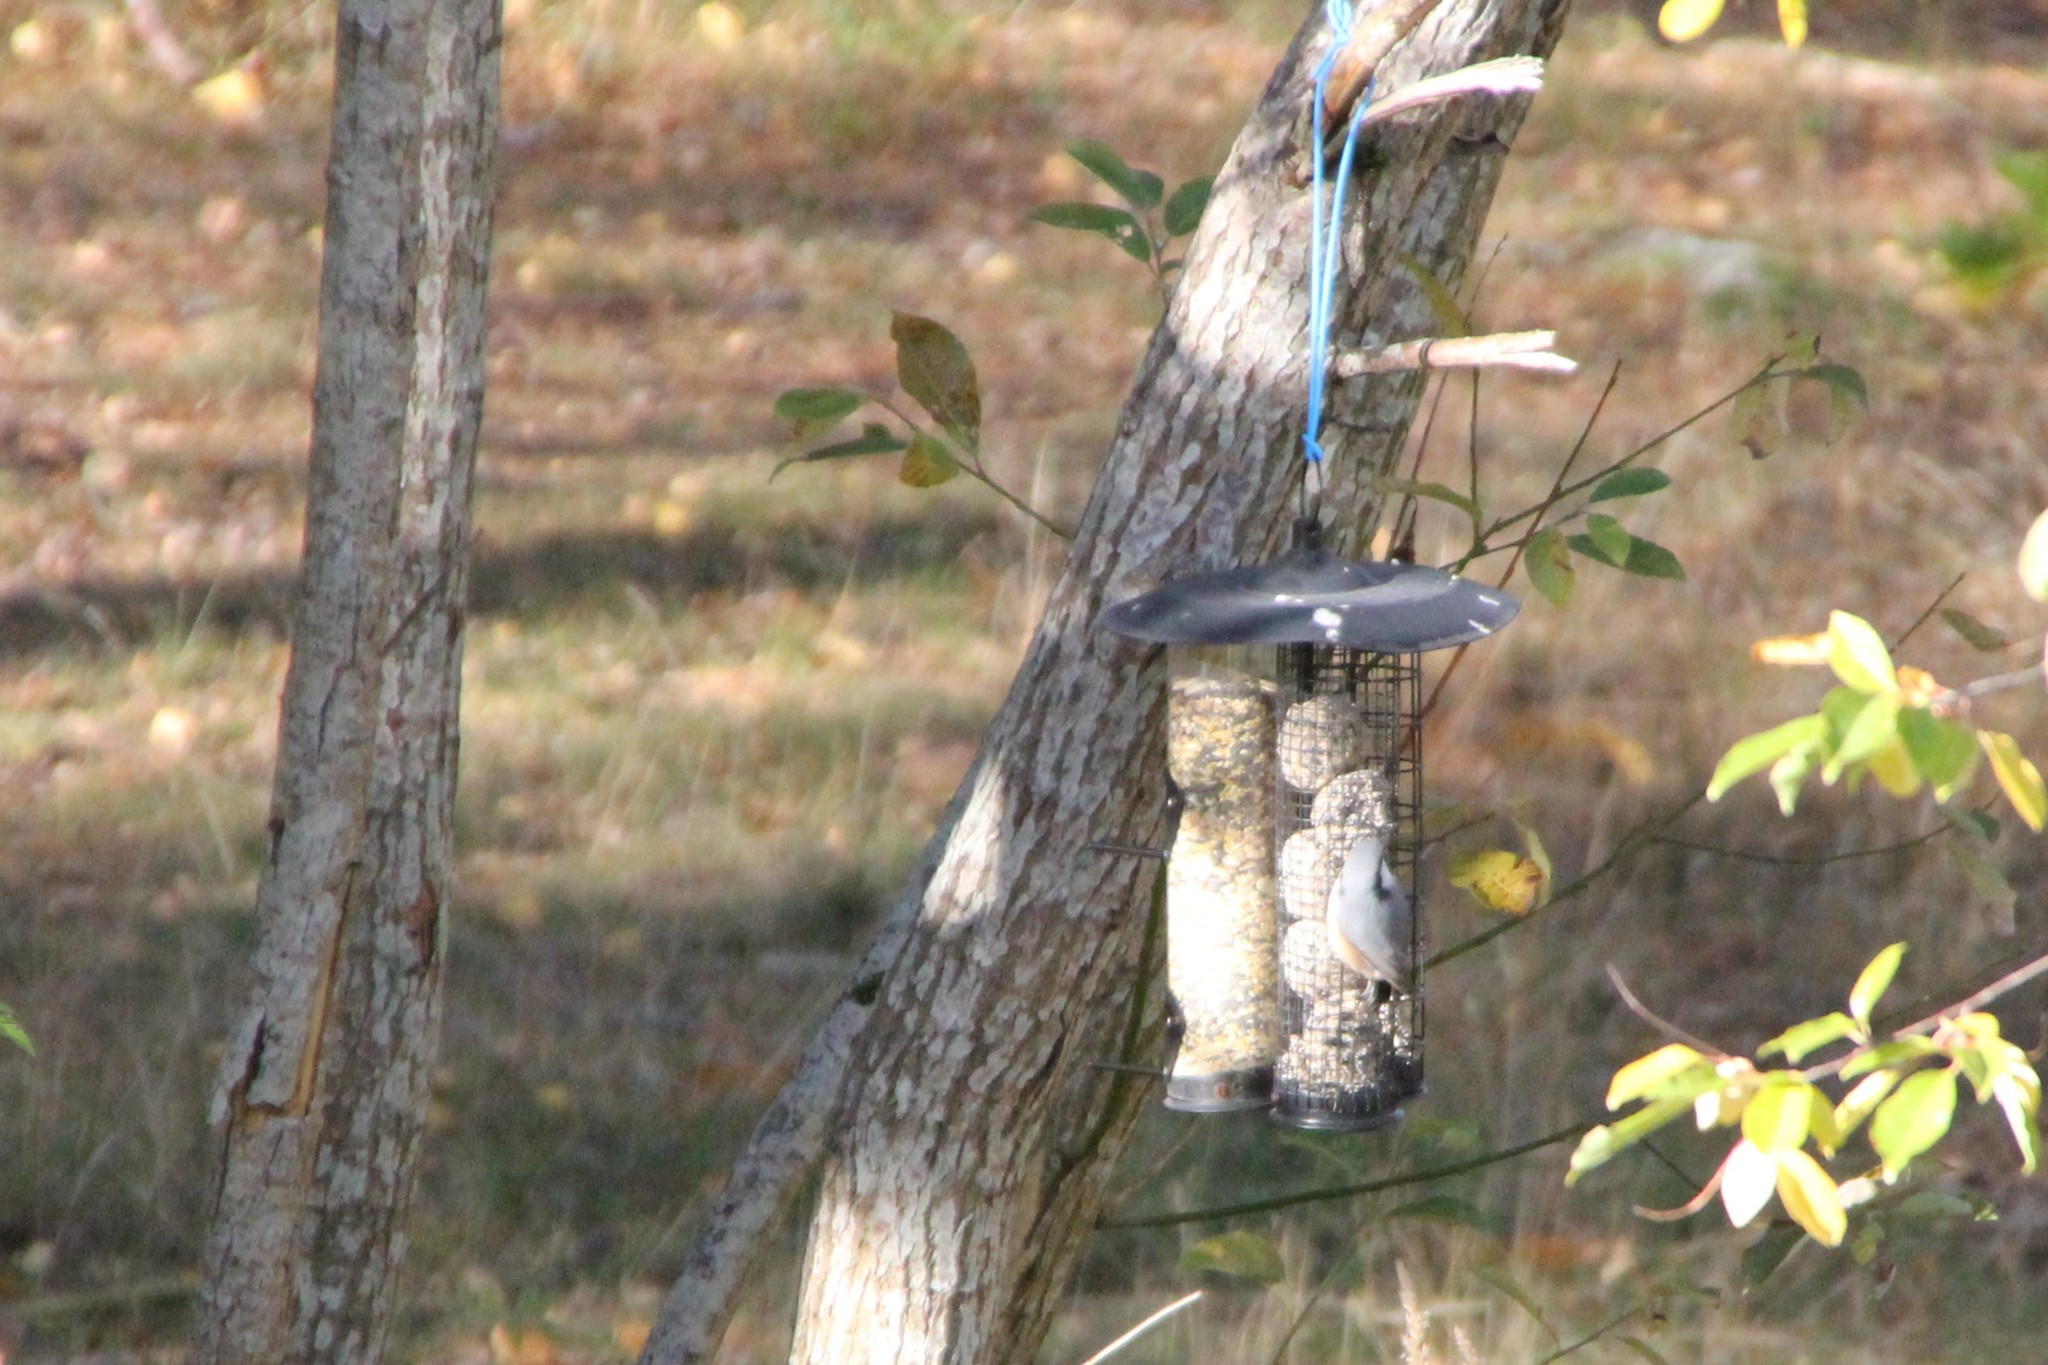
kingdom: Animalia
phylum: Chordata
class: Aves
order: Passeriformes
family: Sittidae
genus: Sitta
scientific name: Sitta europaea
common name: Eurasian nuthatch
